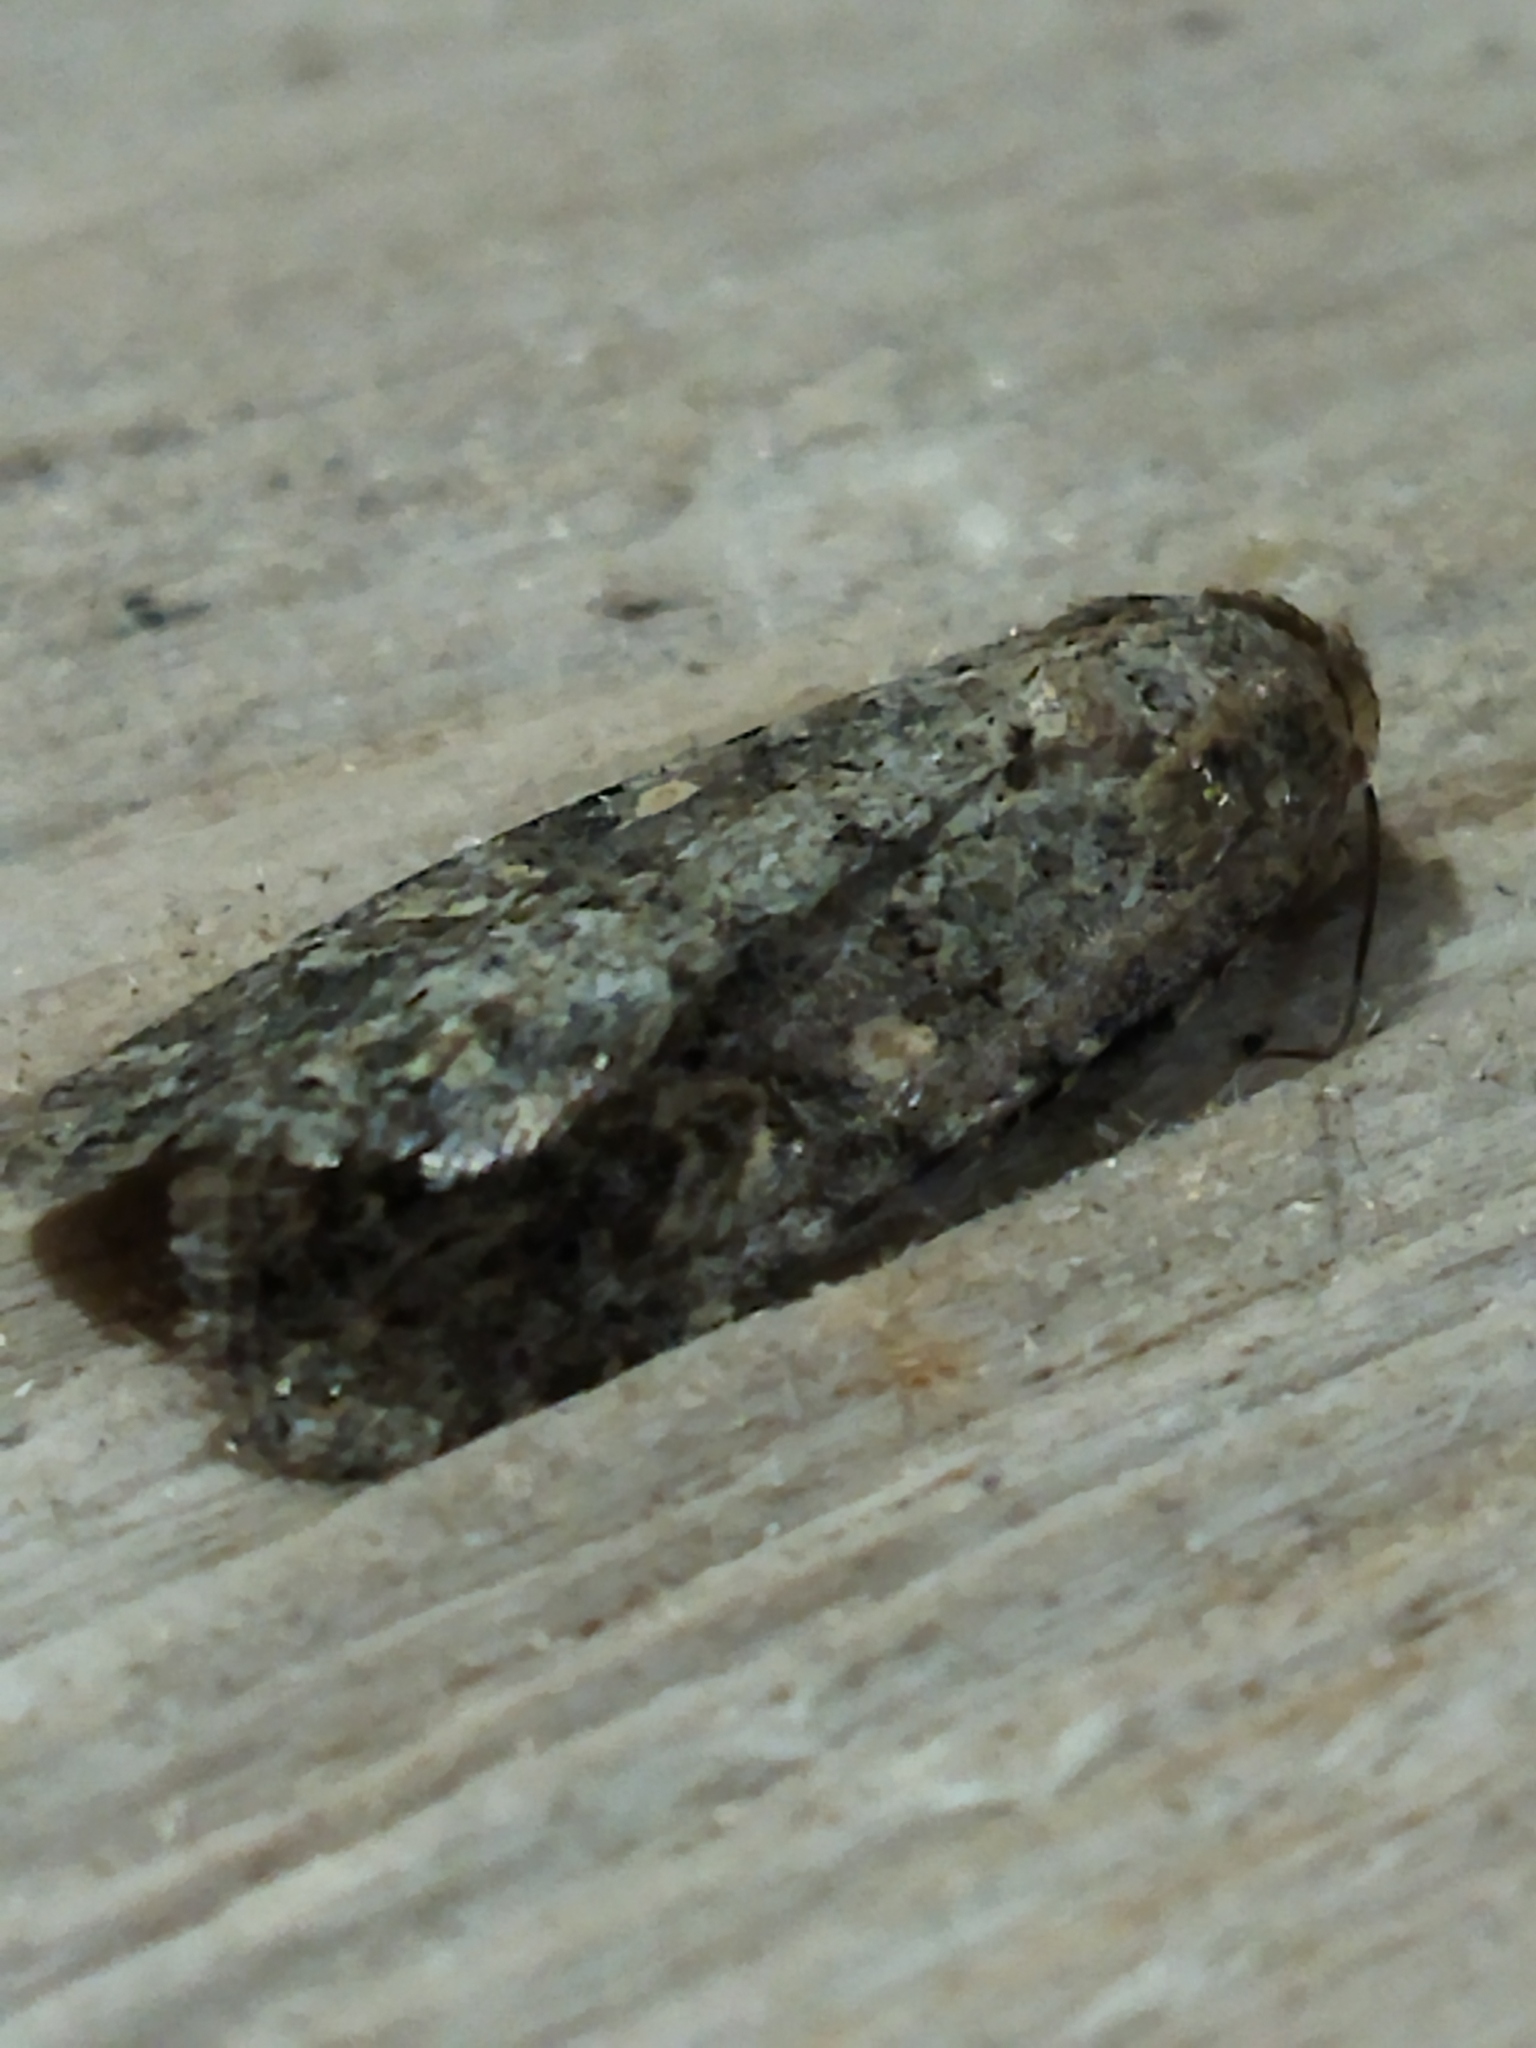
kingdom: Animalia
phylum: Arthropoda
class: Insecta
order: Lepidoptera
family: Noctuidae
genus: Spodoptera
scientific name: Spodoptera exigua
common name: Beet armyworm
